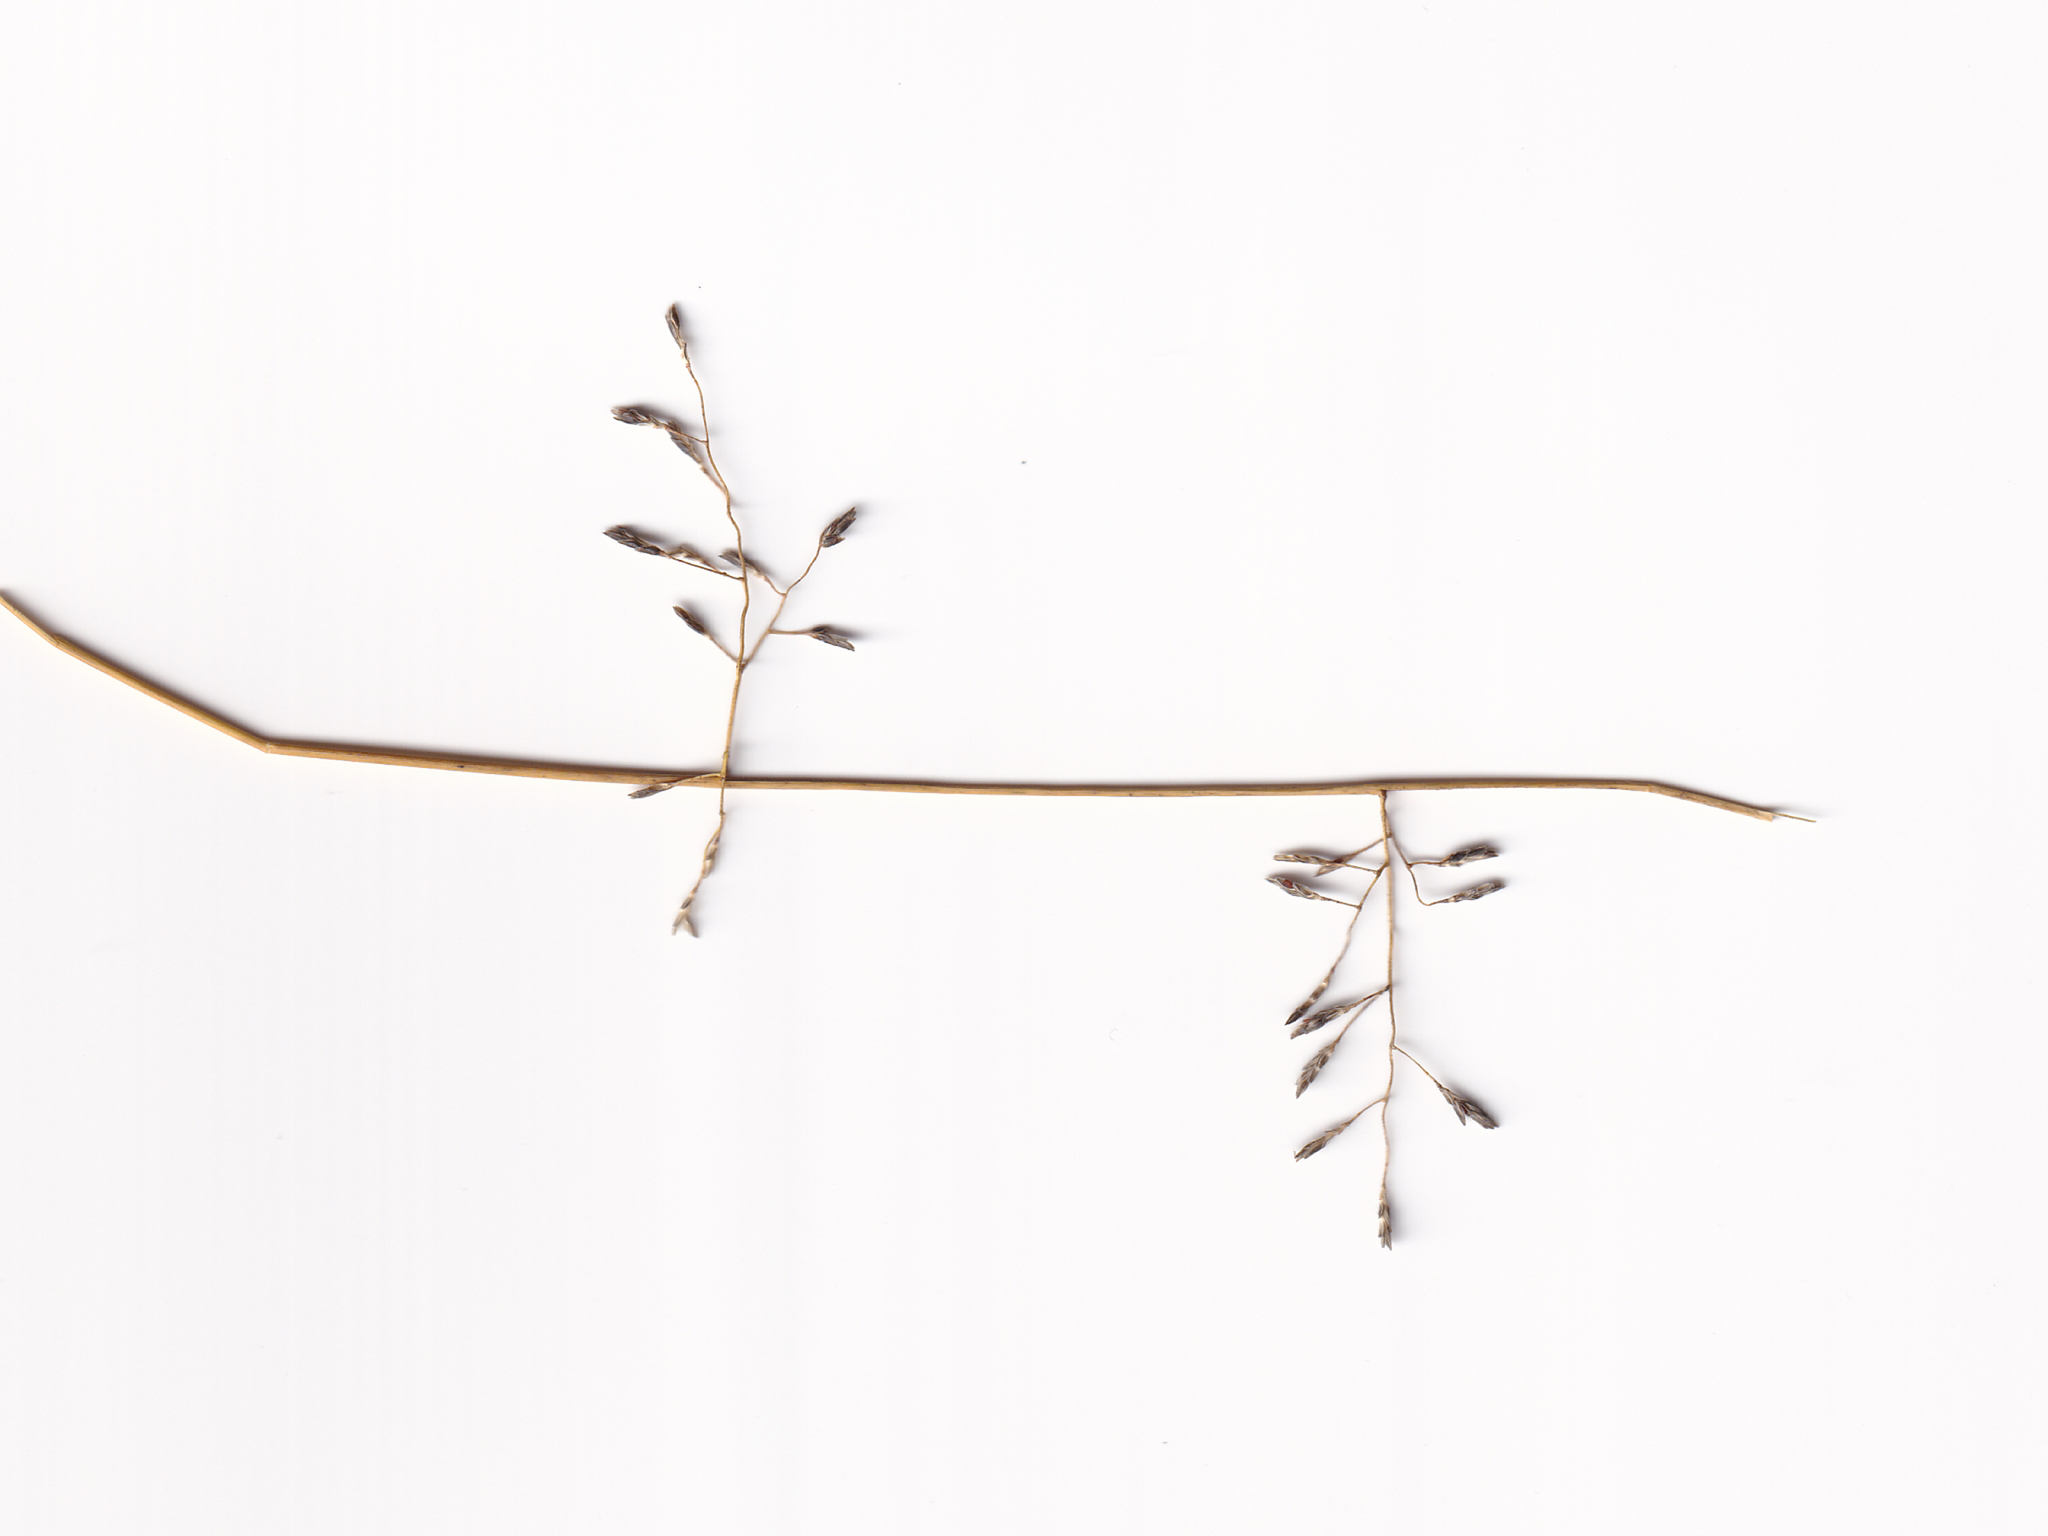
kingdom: Plantae
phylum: Tracheophyta
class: Liliopsida
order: Poales
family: Poaceae
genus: Eragrostis
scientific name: Eragrostis leptostachya
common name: Australian lovegrass
